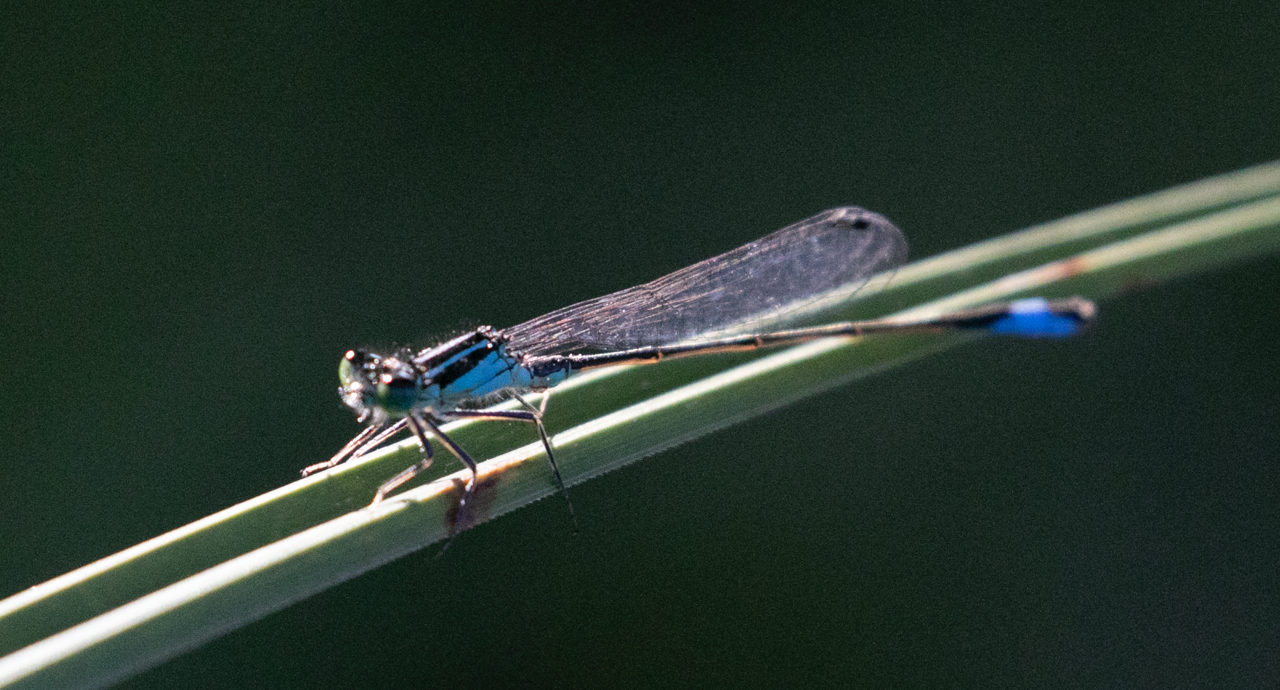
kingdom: Animalia
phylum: Arthropoda
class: Insecta
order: Odonata
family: Coenagrionidae
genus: Ischnura
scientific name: Ischnura elegans
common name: Blue-tailed damselfly
